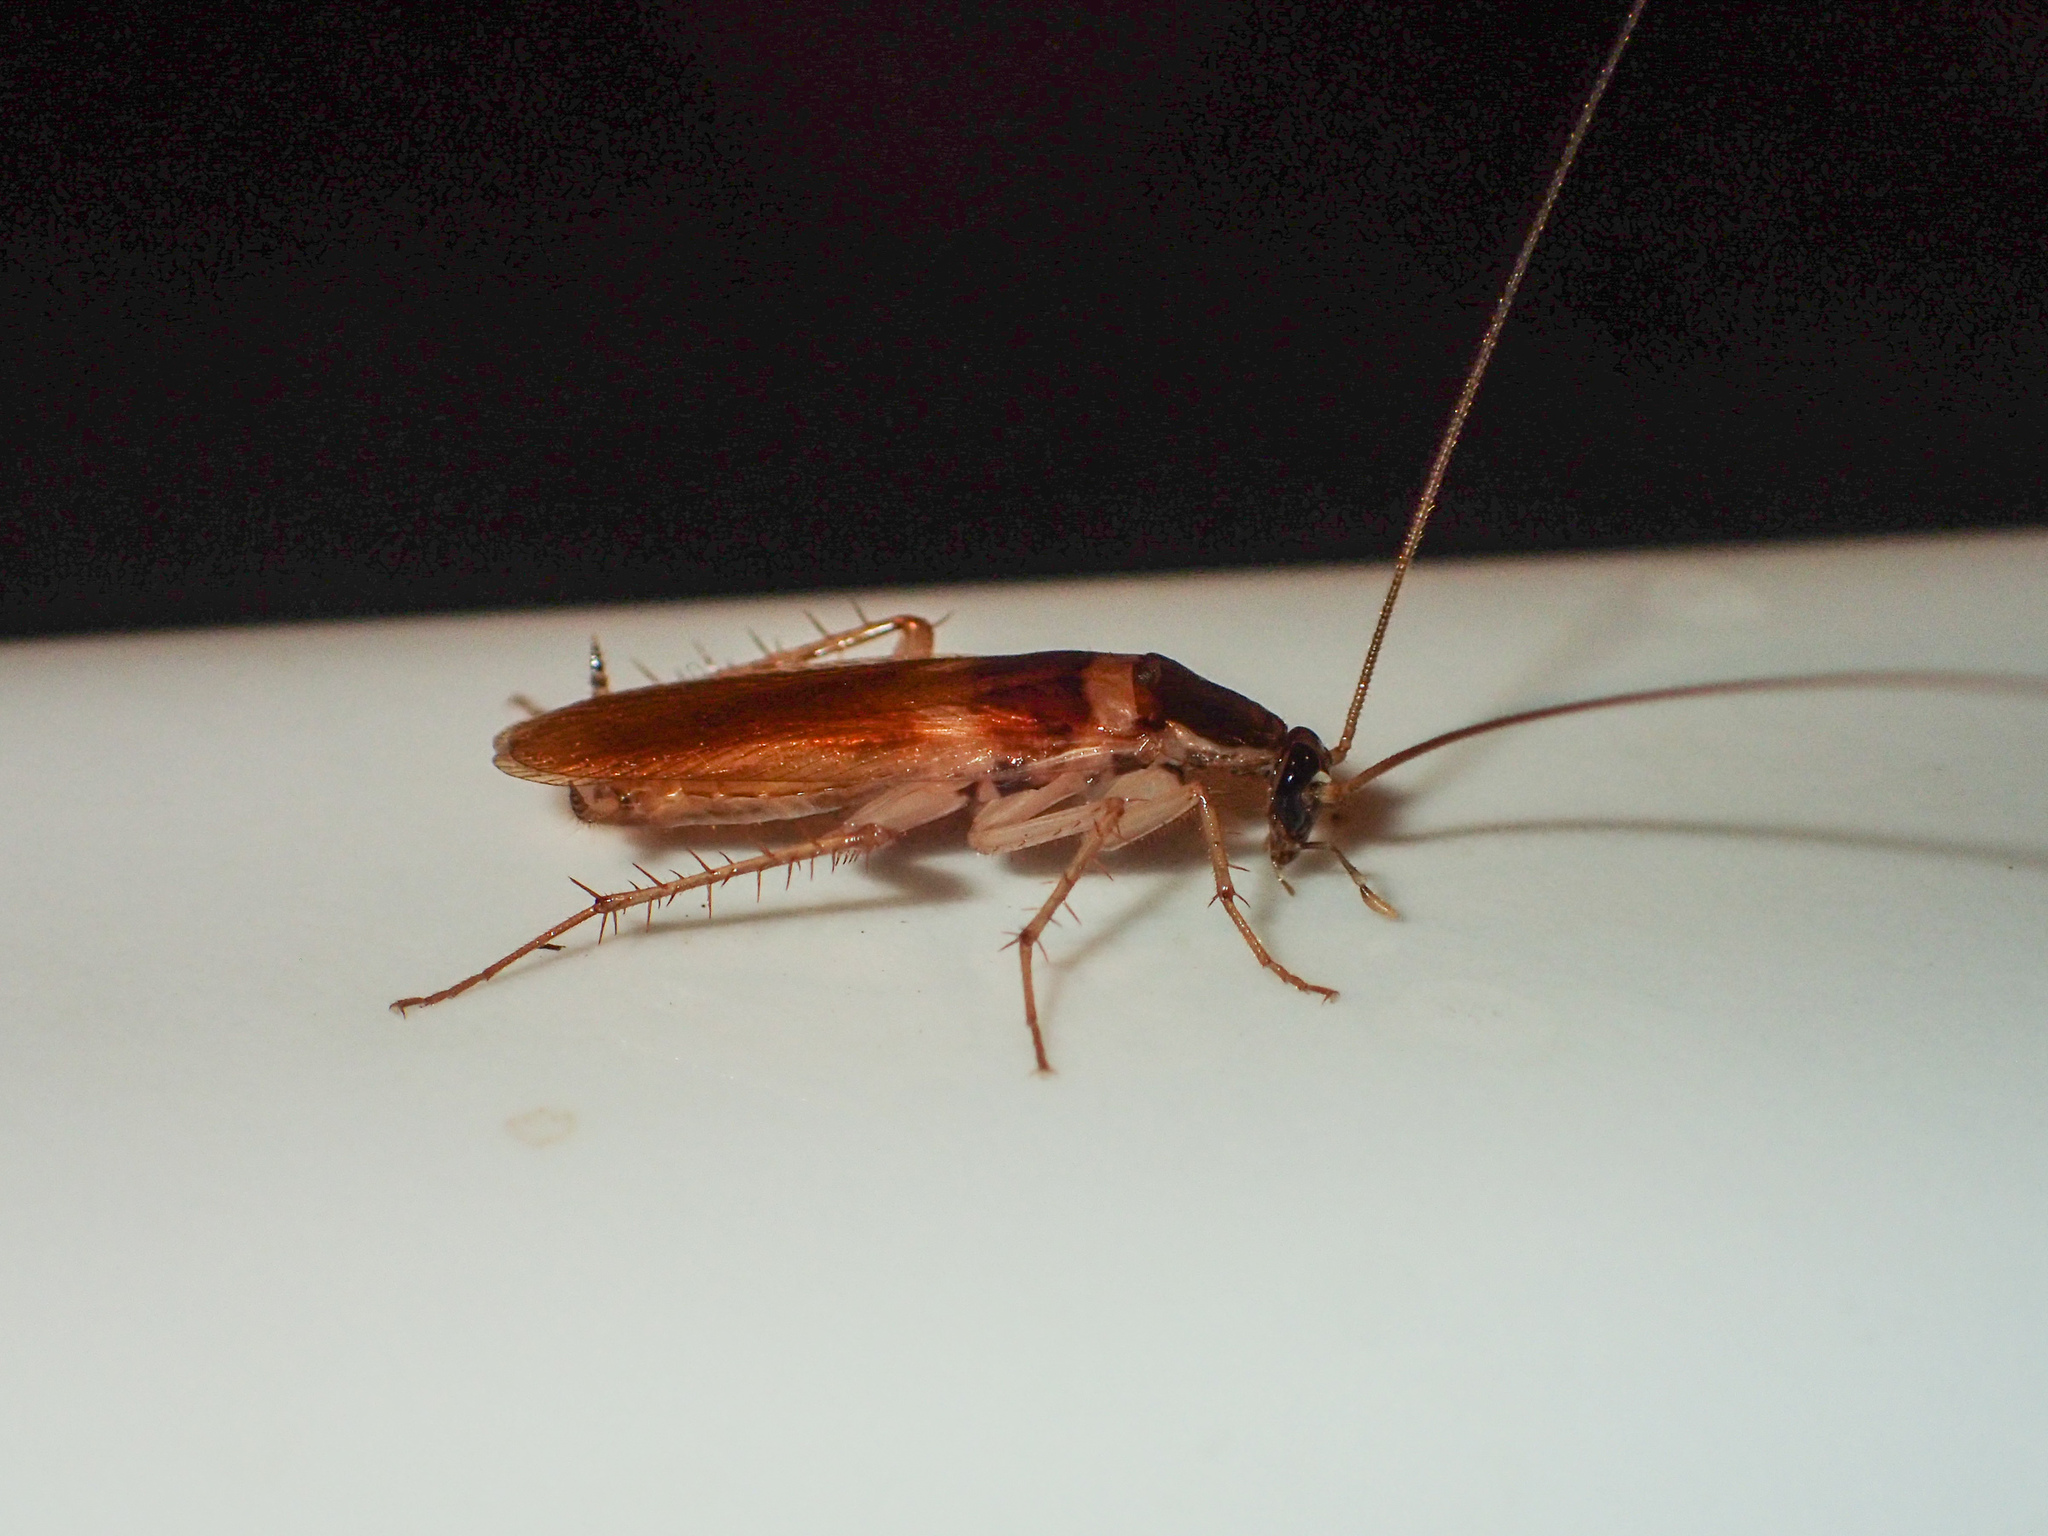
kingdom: Animalia
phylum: Arthropoda
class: Insecta
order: Blattodea
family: Ectobiidae
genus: Supella
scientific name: Supella longipalpa
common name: Brown-banded cockroach
